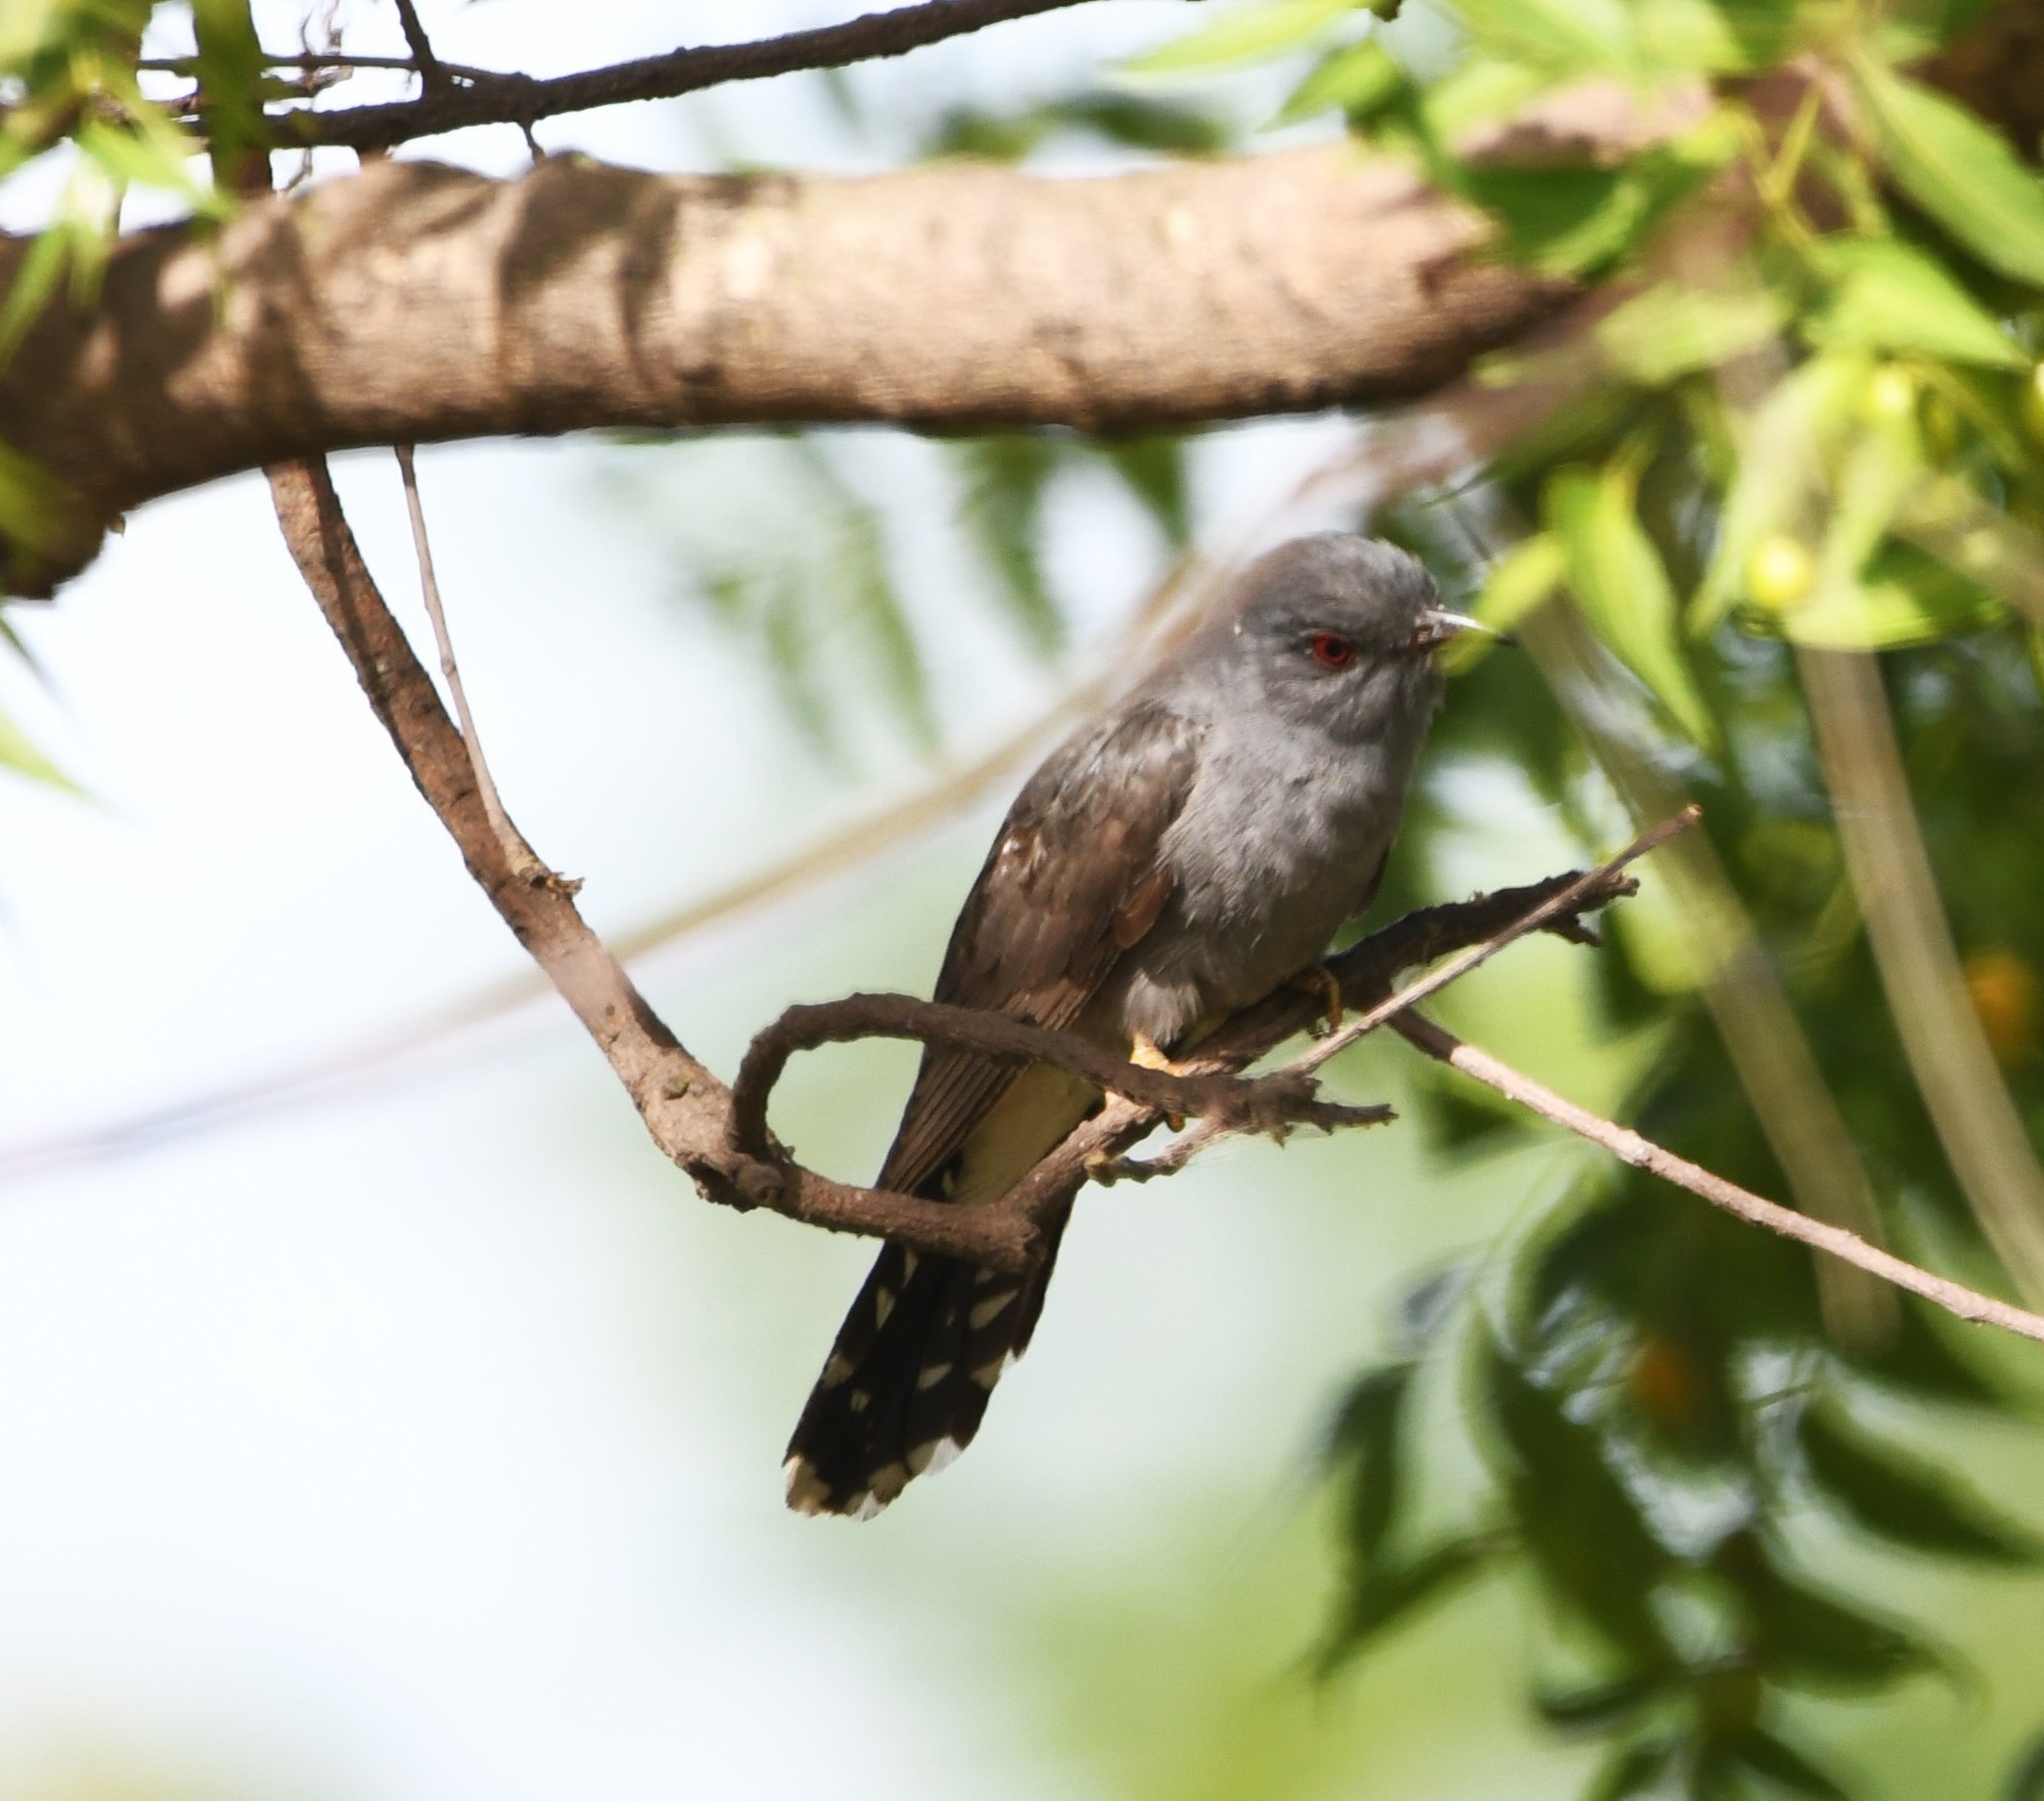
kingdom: Animalia
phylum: Chordata
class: Aves
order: Cuculiformes
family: Cuculidae
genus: Cacomantis
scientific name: Cacomantis passerinus
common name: Grey-bellied cuckoo
